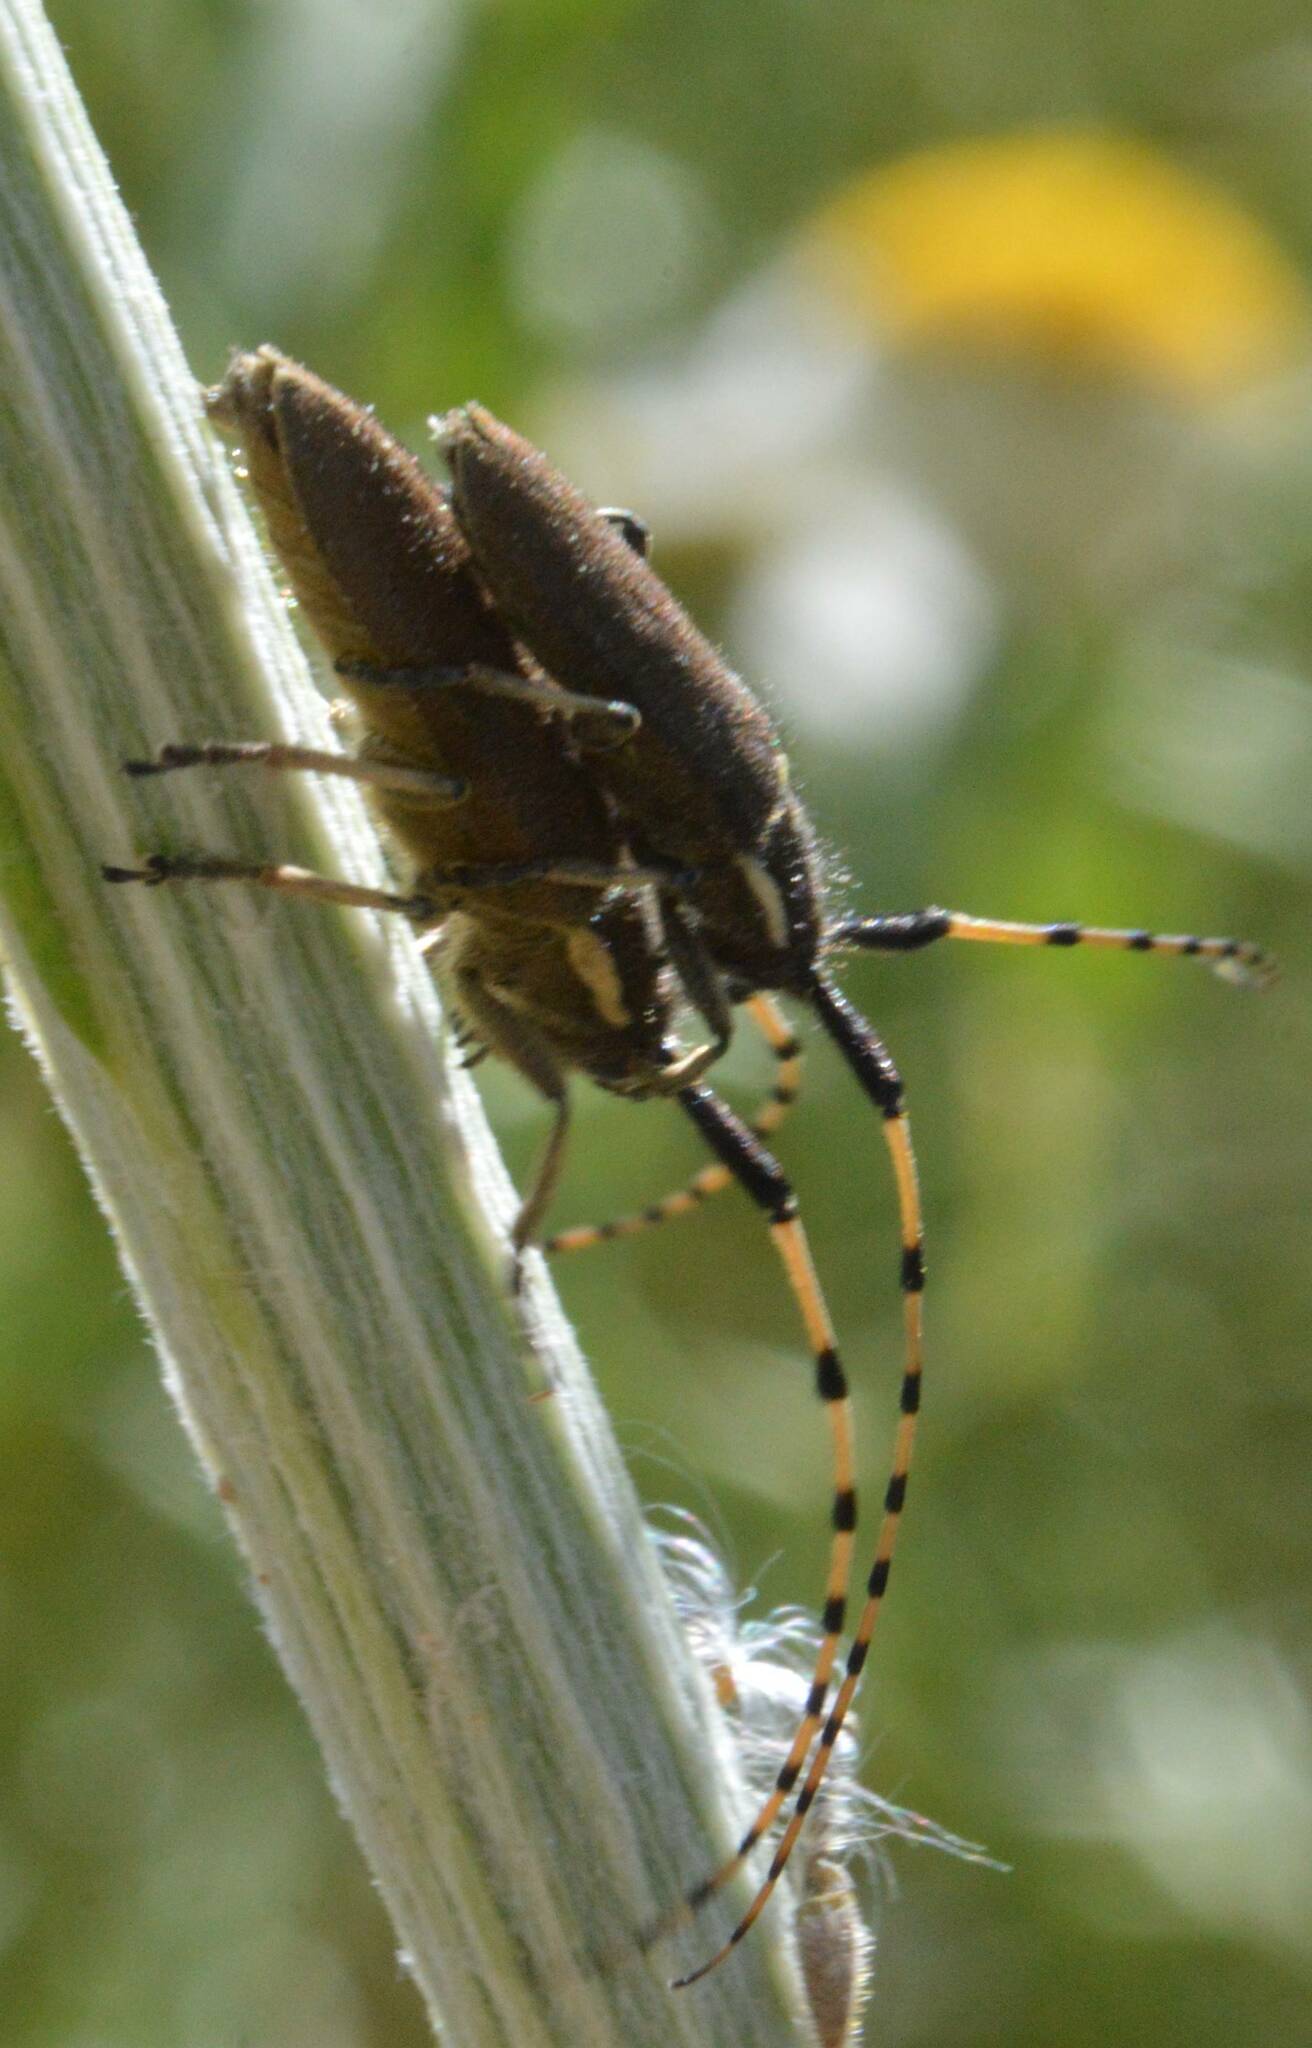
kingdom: Animalia
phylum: Arthropoda
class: Insecta
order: Coleoptera
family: Cerambycidae
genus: Agapanthia
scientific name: Agapanthia annularis
